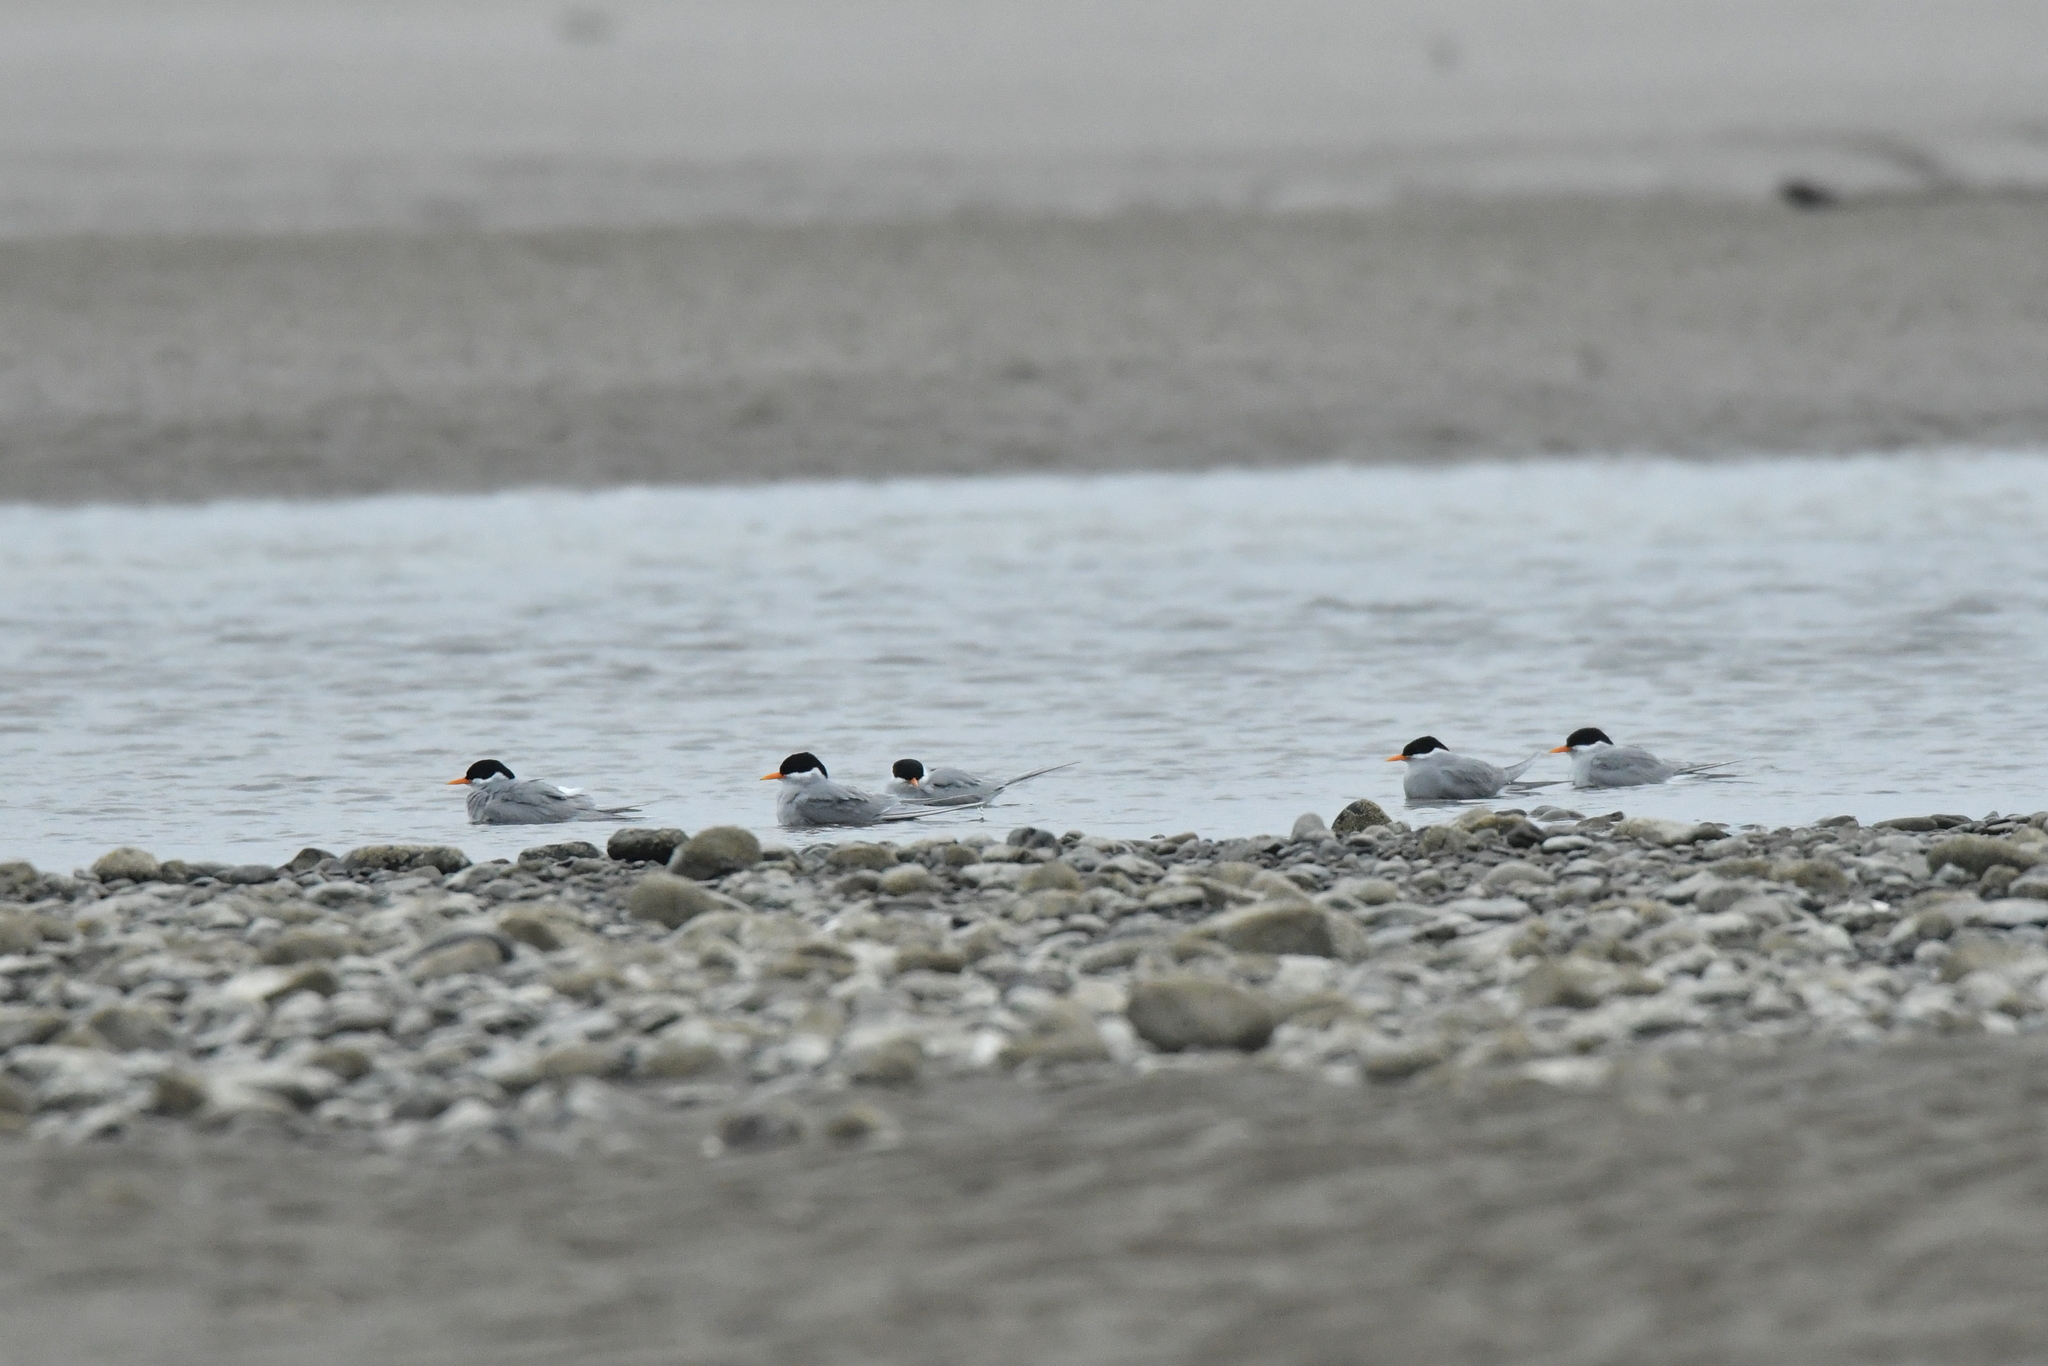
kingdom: Animalia
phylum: Chordata
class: Aves
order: Charadriiformes
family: Laridae
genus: Chlidonias
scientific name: Chlidonias albostriatus
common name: Black-fronted tern
